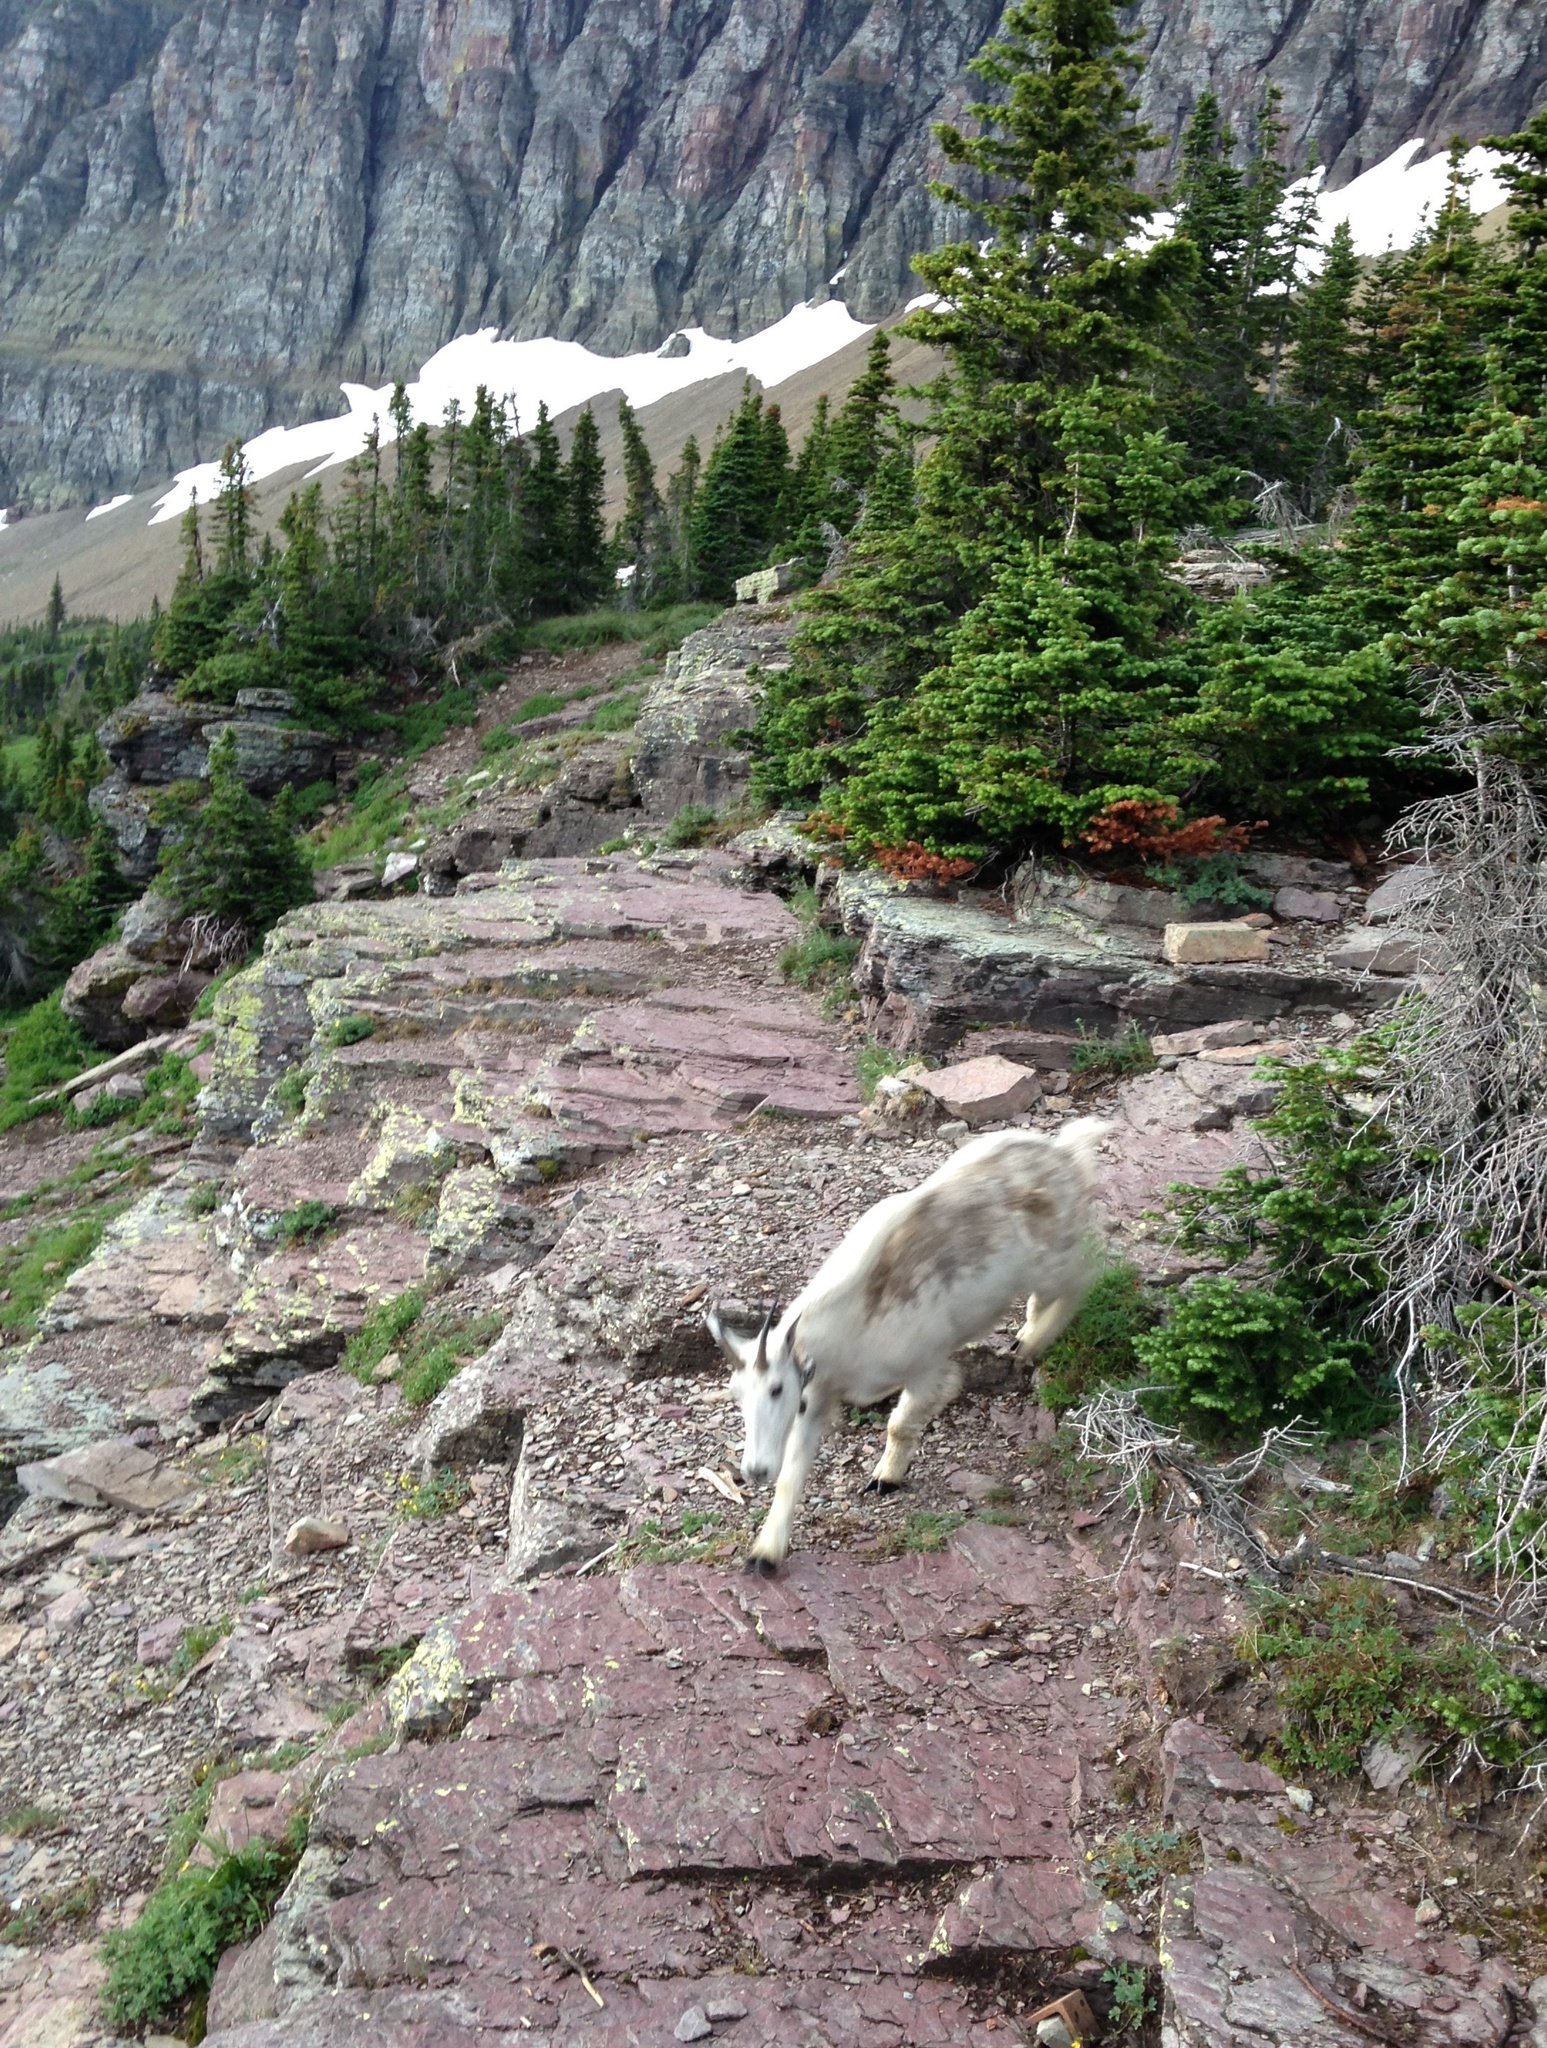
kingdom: Animalia
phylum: Chordata
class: Mammalia
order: Artiodactyla
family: Bovidae
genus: Oreamnos
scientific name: Oreamnos americanus
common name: Mountain goat
